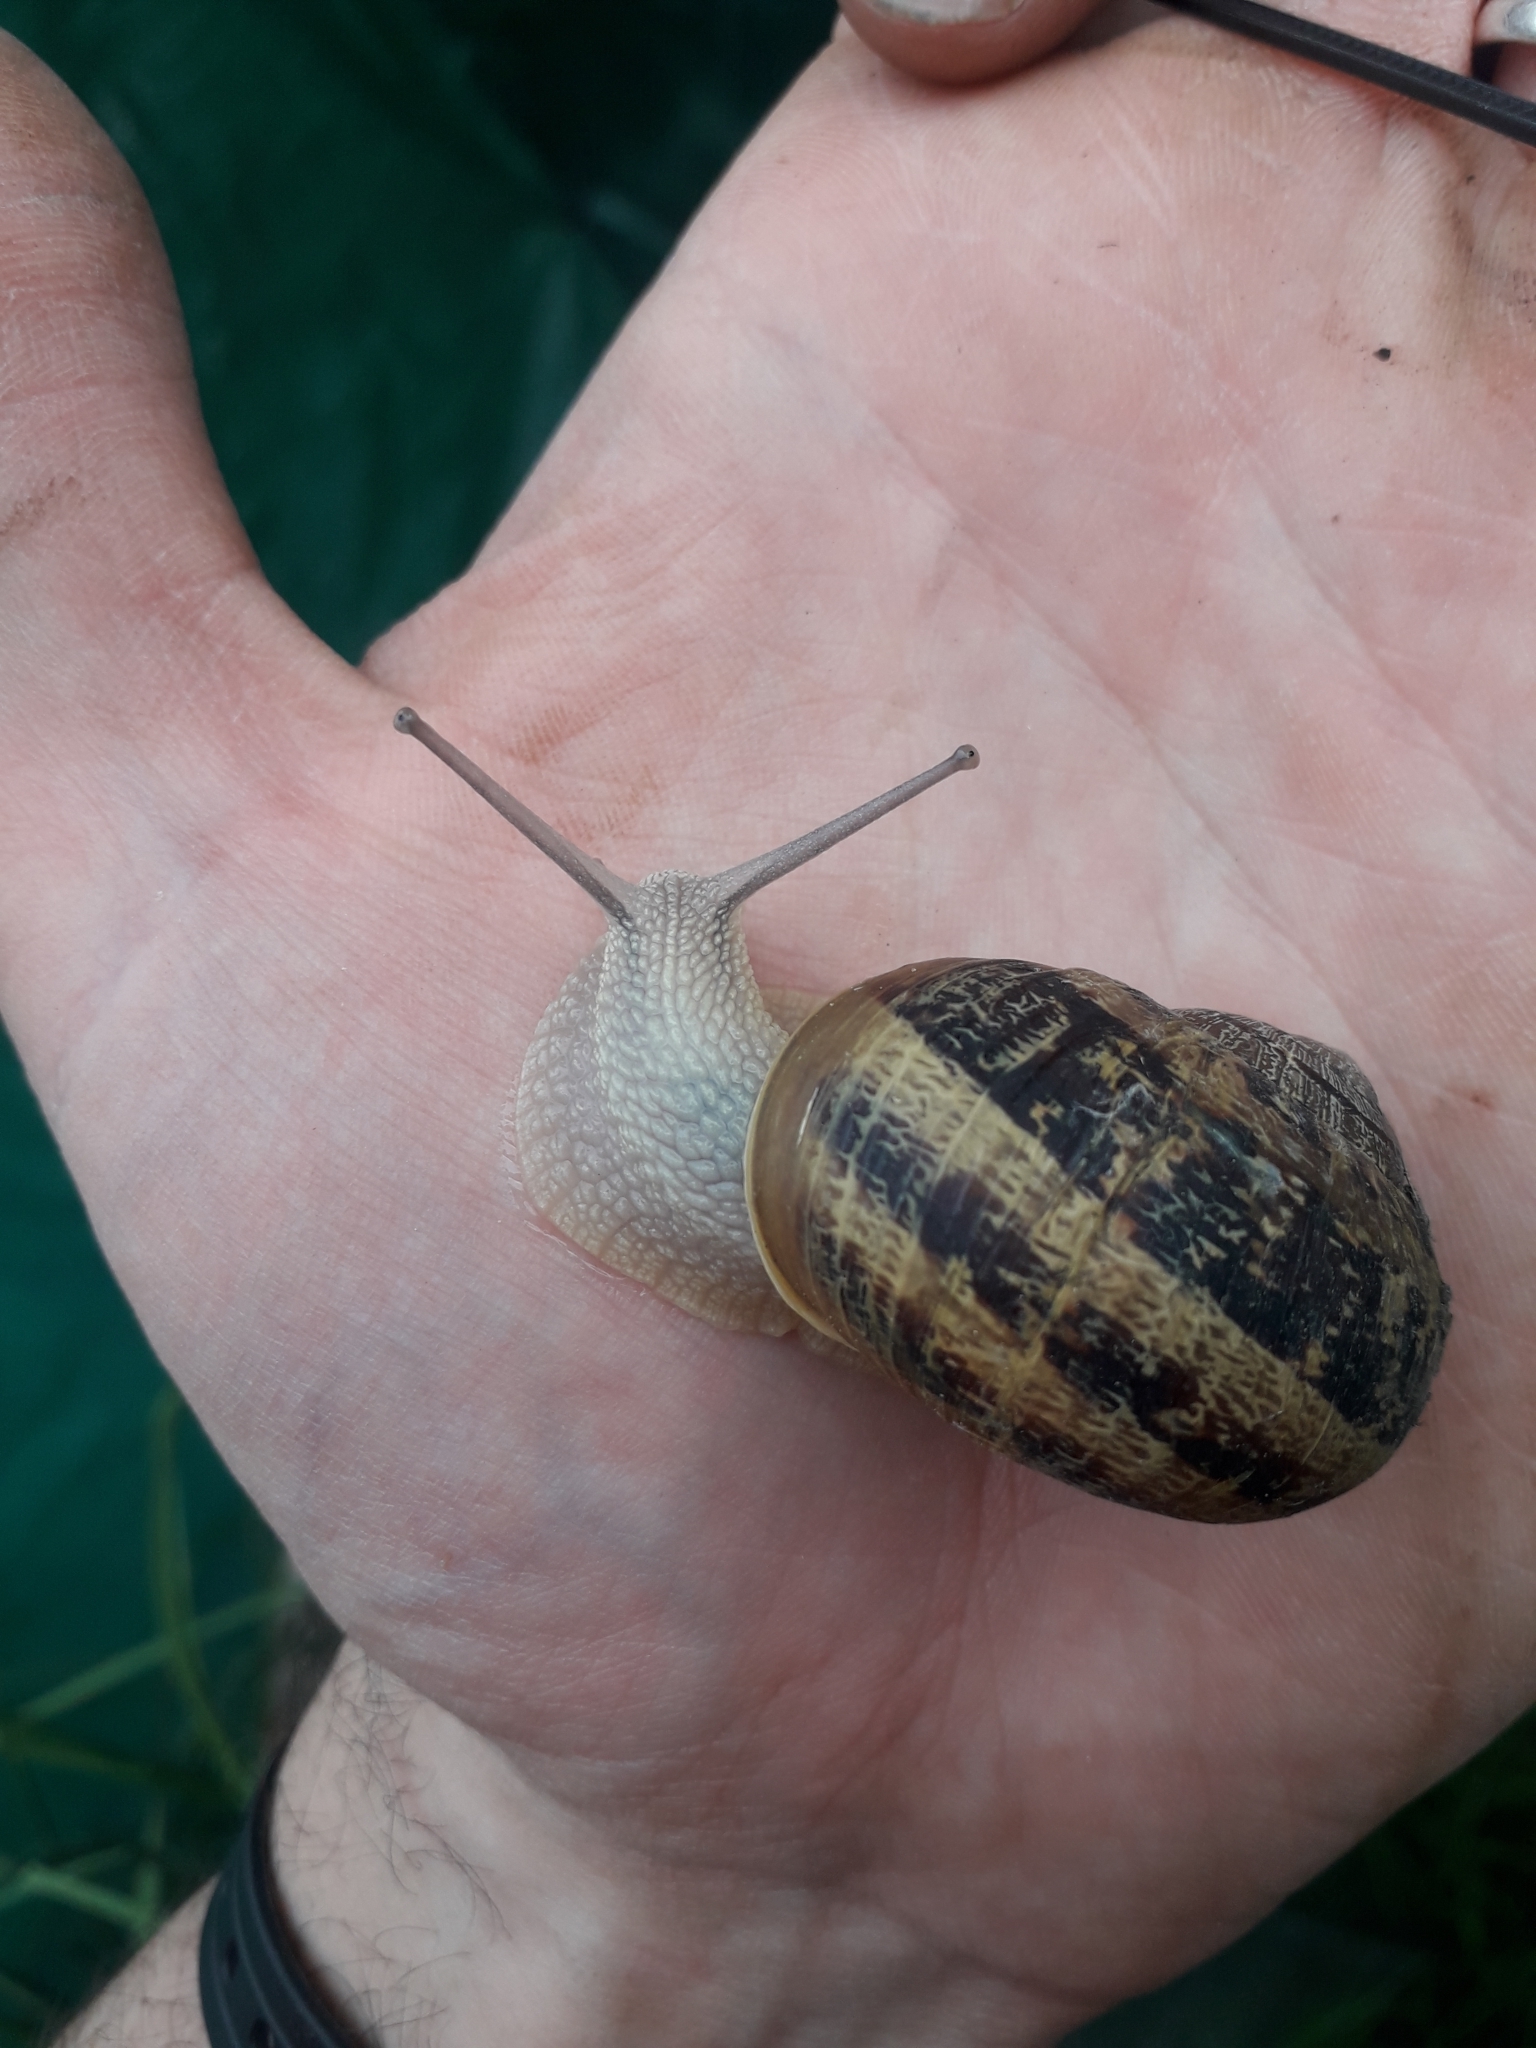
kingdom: Animalia
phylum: Mollusca
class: Gastropoda
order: Stylommatophora
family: Helicidae
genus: Cornu
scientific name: Cornu aspersum
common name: Brown garden snail
